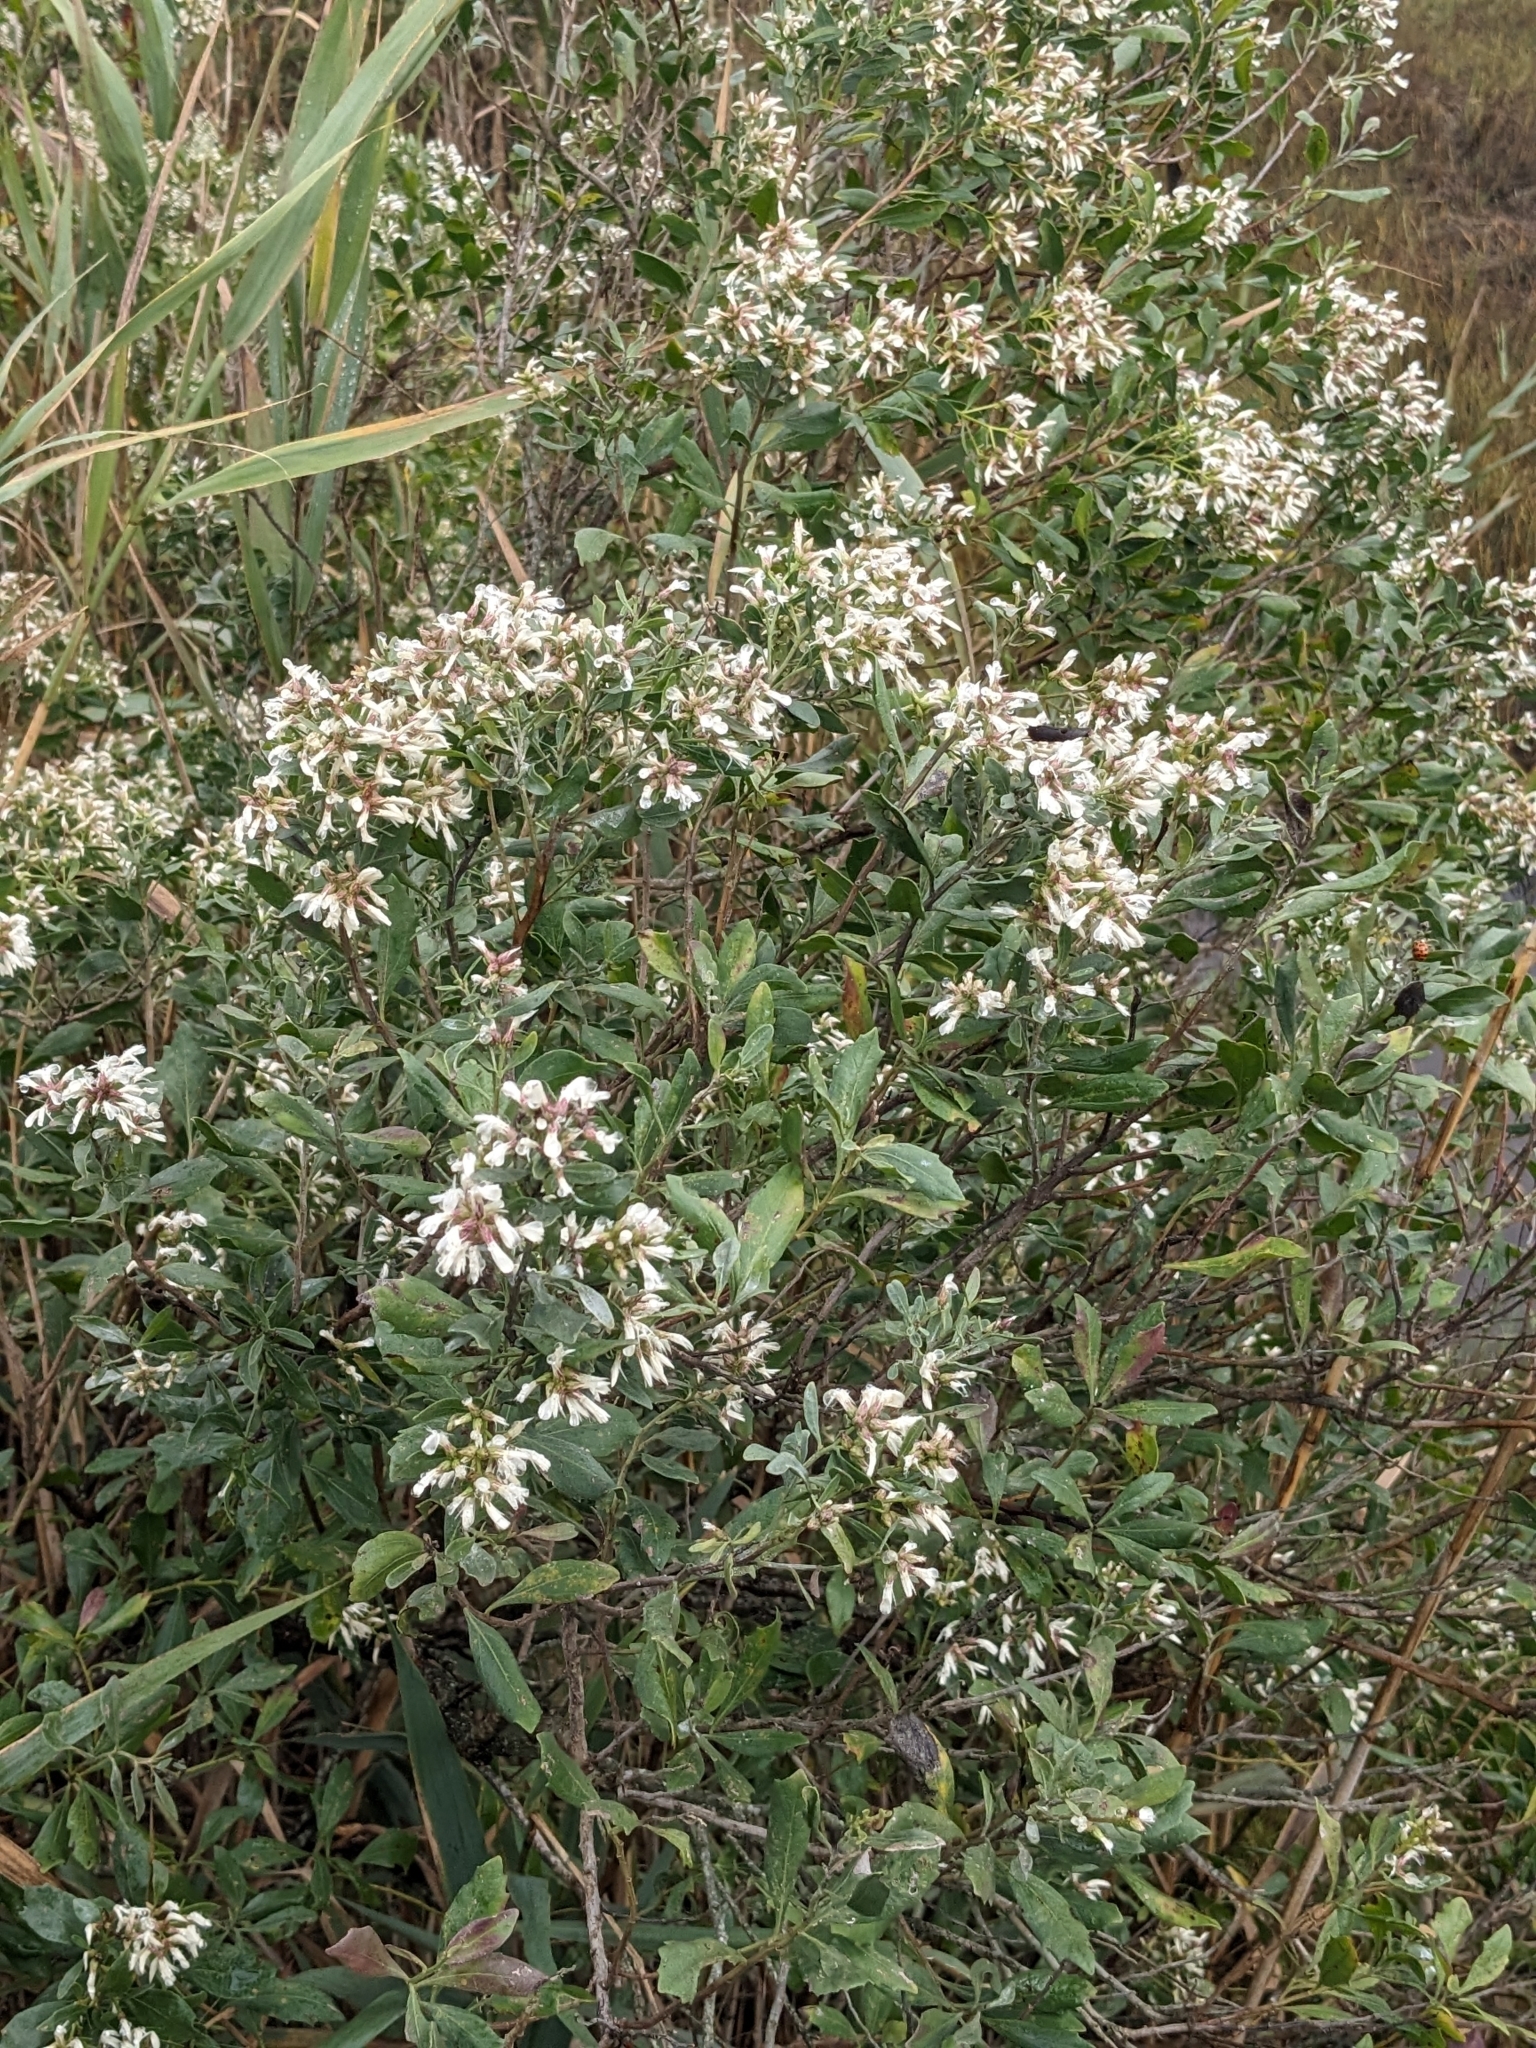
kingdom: Plantae
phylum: Tracheophyta
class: Magnoliopsida
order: Asterales
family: Asteraceae
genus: Baccharis
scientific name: Baccharis halimifolia
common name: Eastern baccharis
